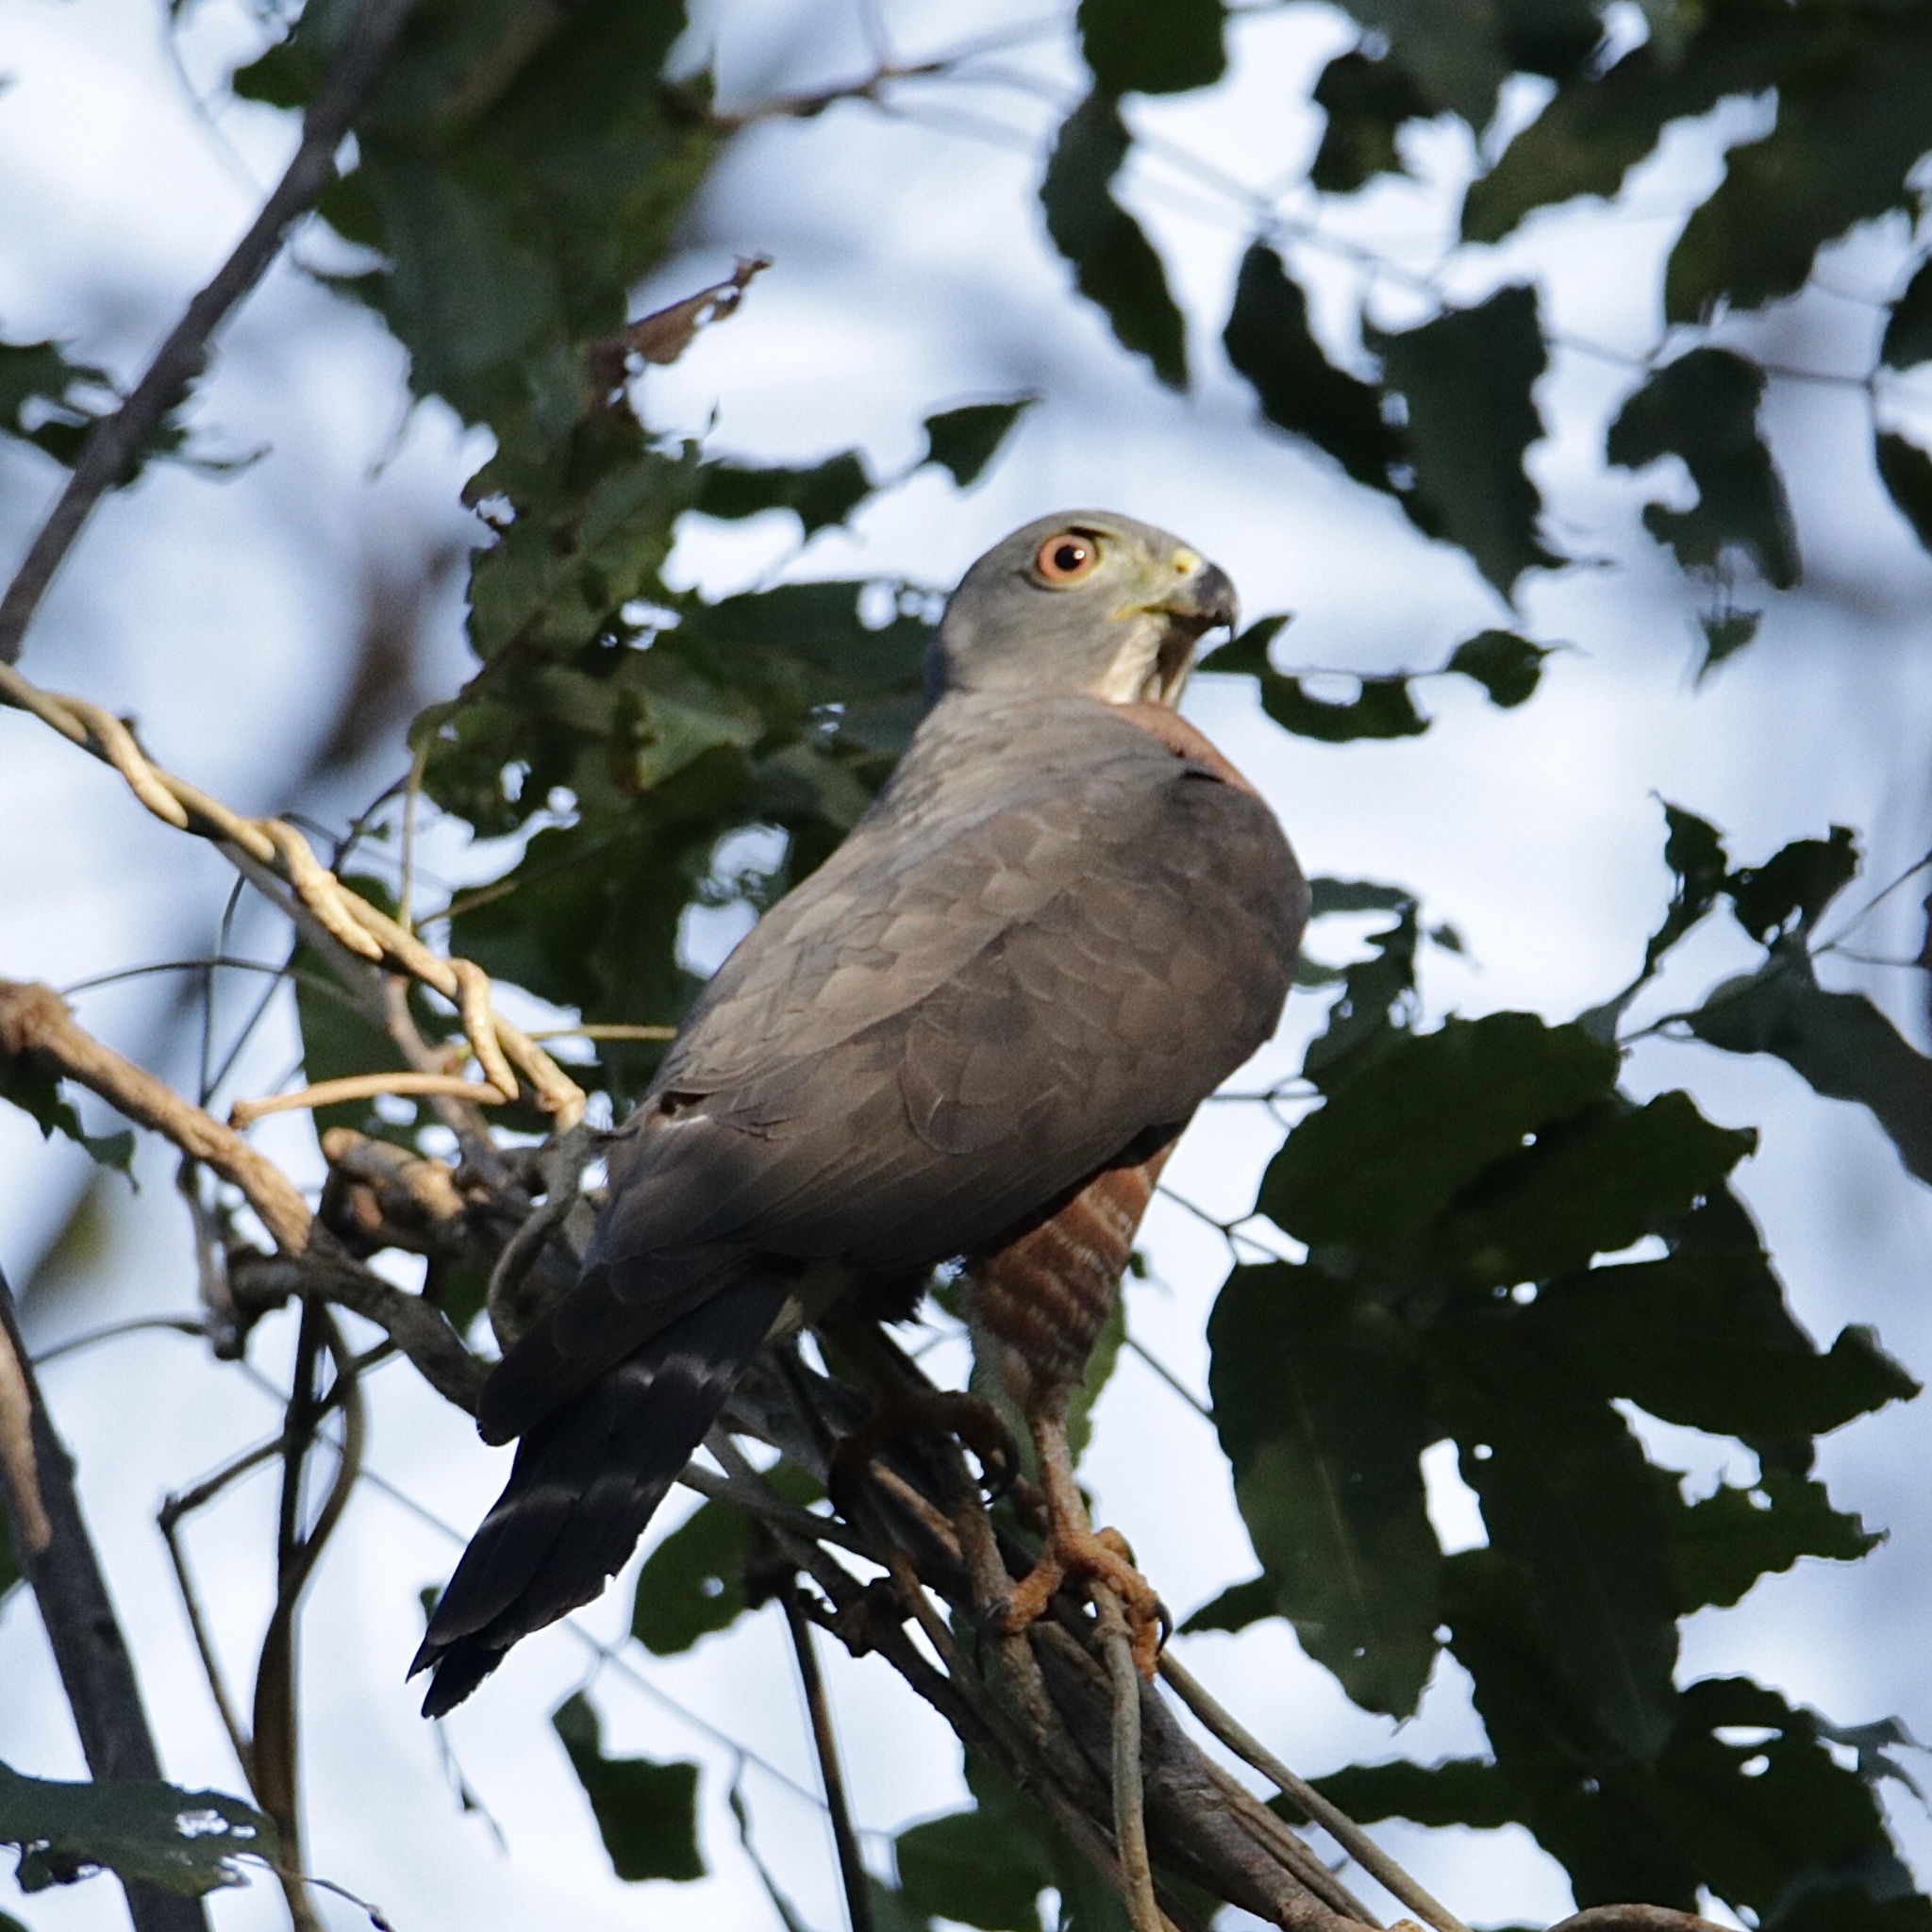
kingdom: Animalia
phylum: Chordata
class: Aves
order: Accipitriformes
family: Accipitridae
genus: Harpagus
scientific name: Harpagus bidentatus
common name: Double-toothed kite
